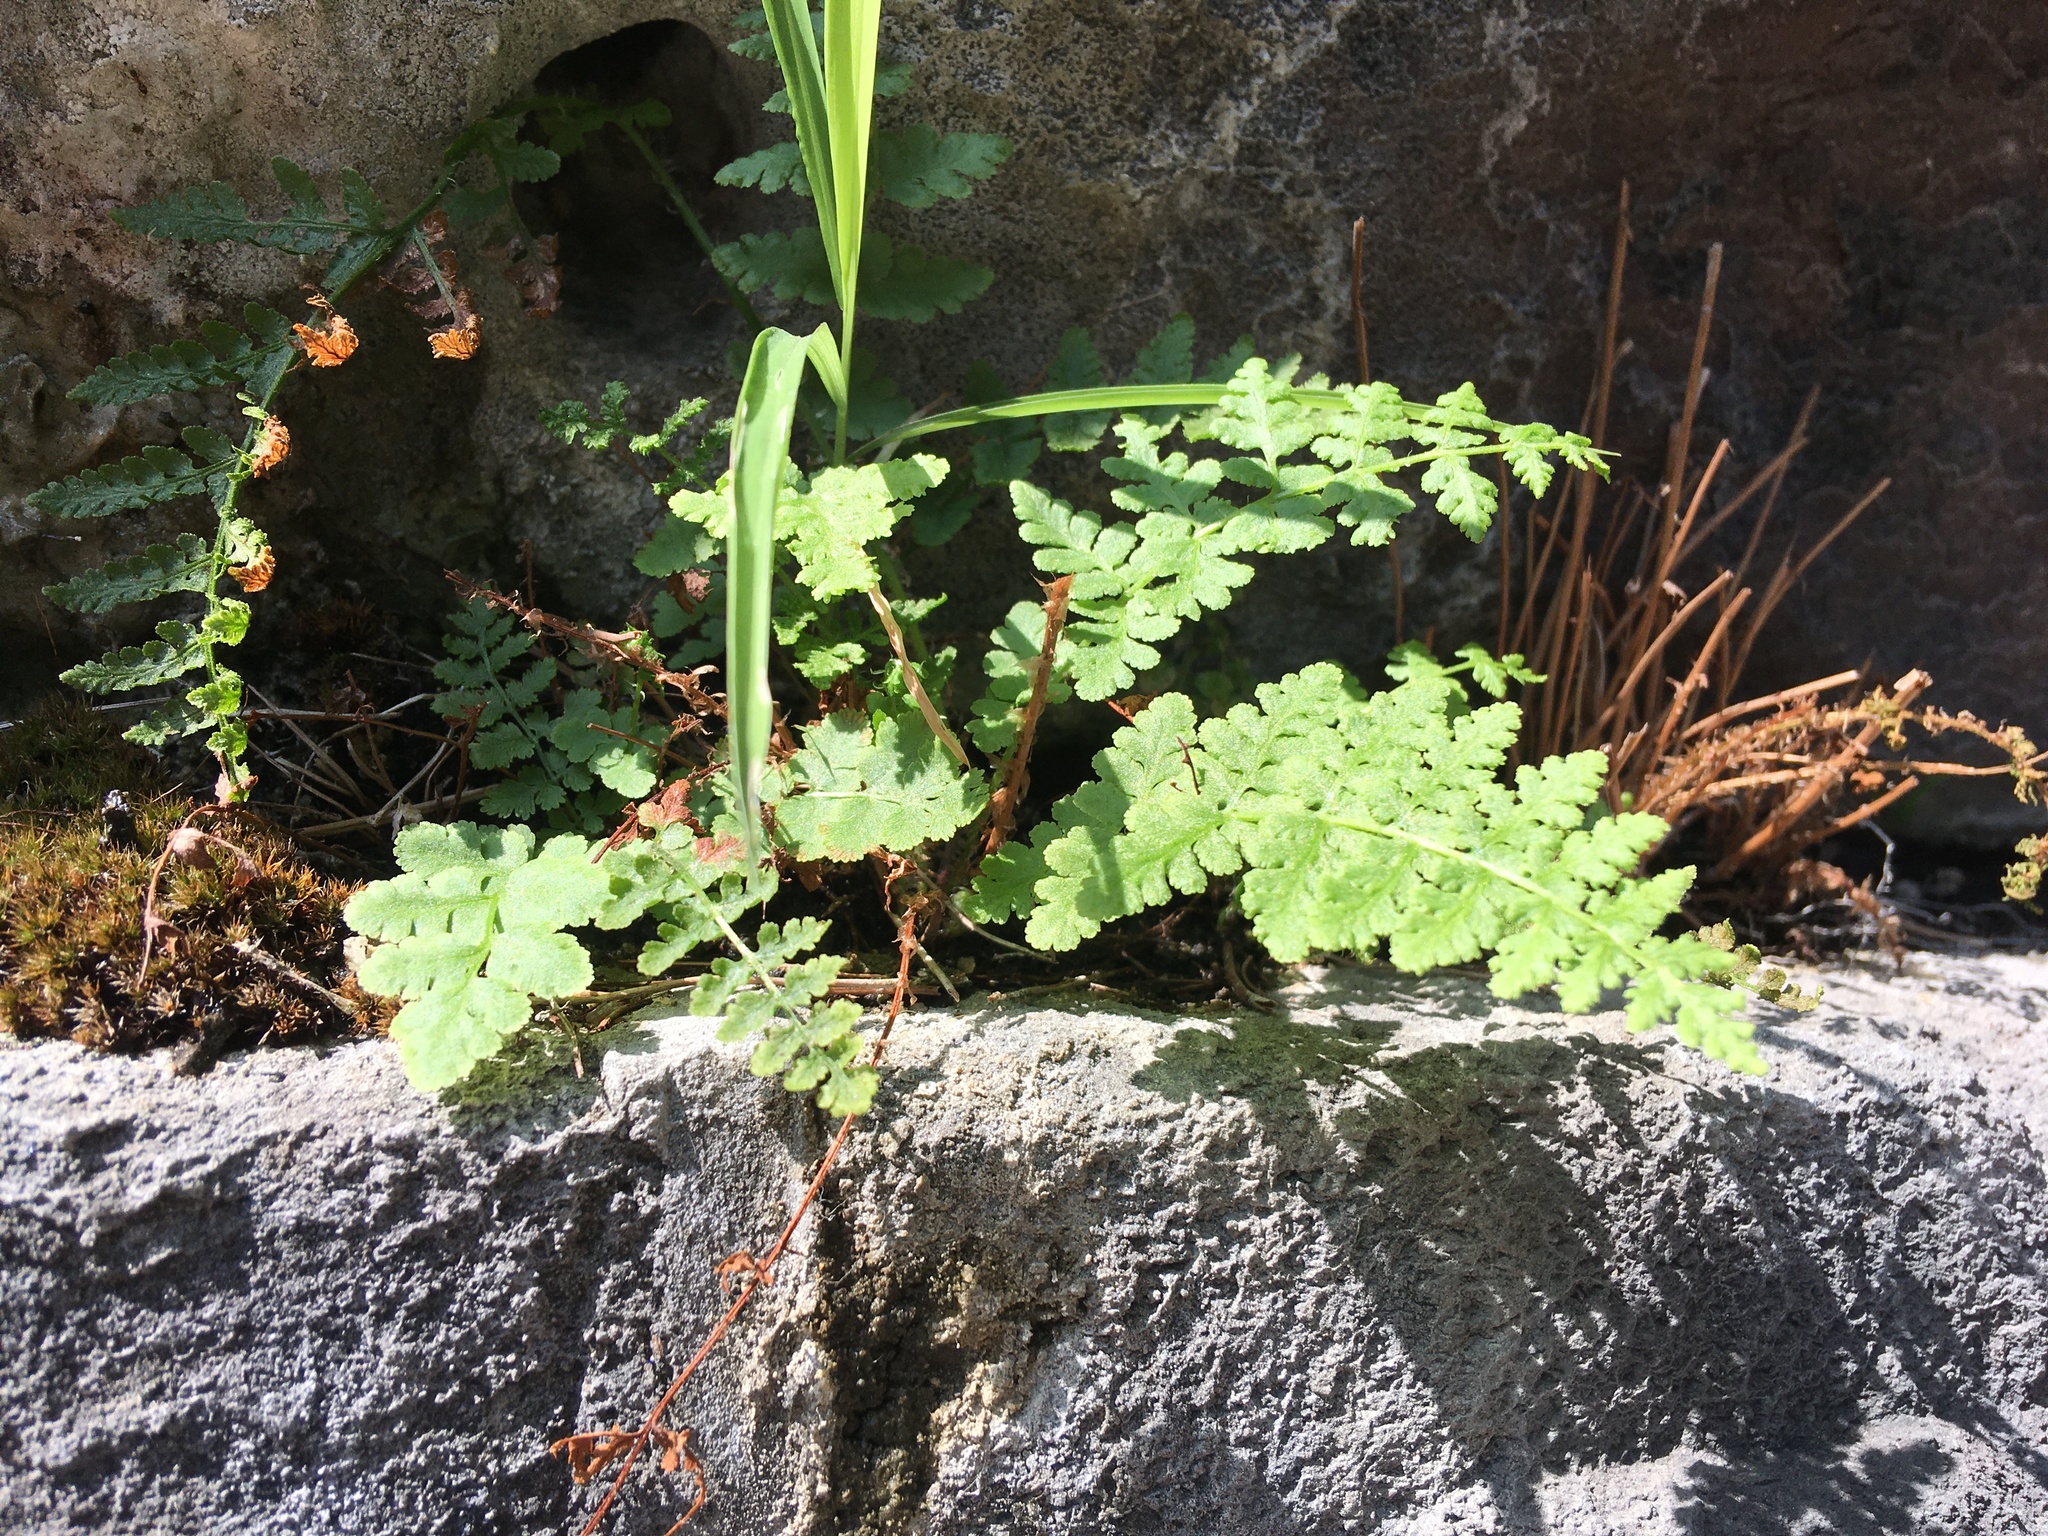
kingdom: Plantae
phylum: Tracheophyta
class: Polypodiopsida
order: Polypodiales
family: Woodsiaceae
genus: Physematium
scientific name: Physematium obtusum
